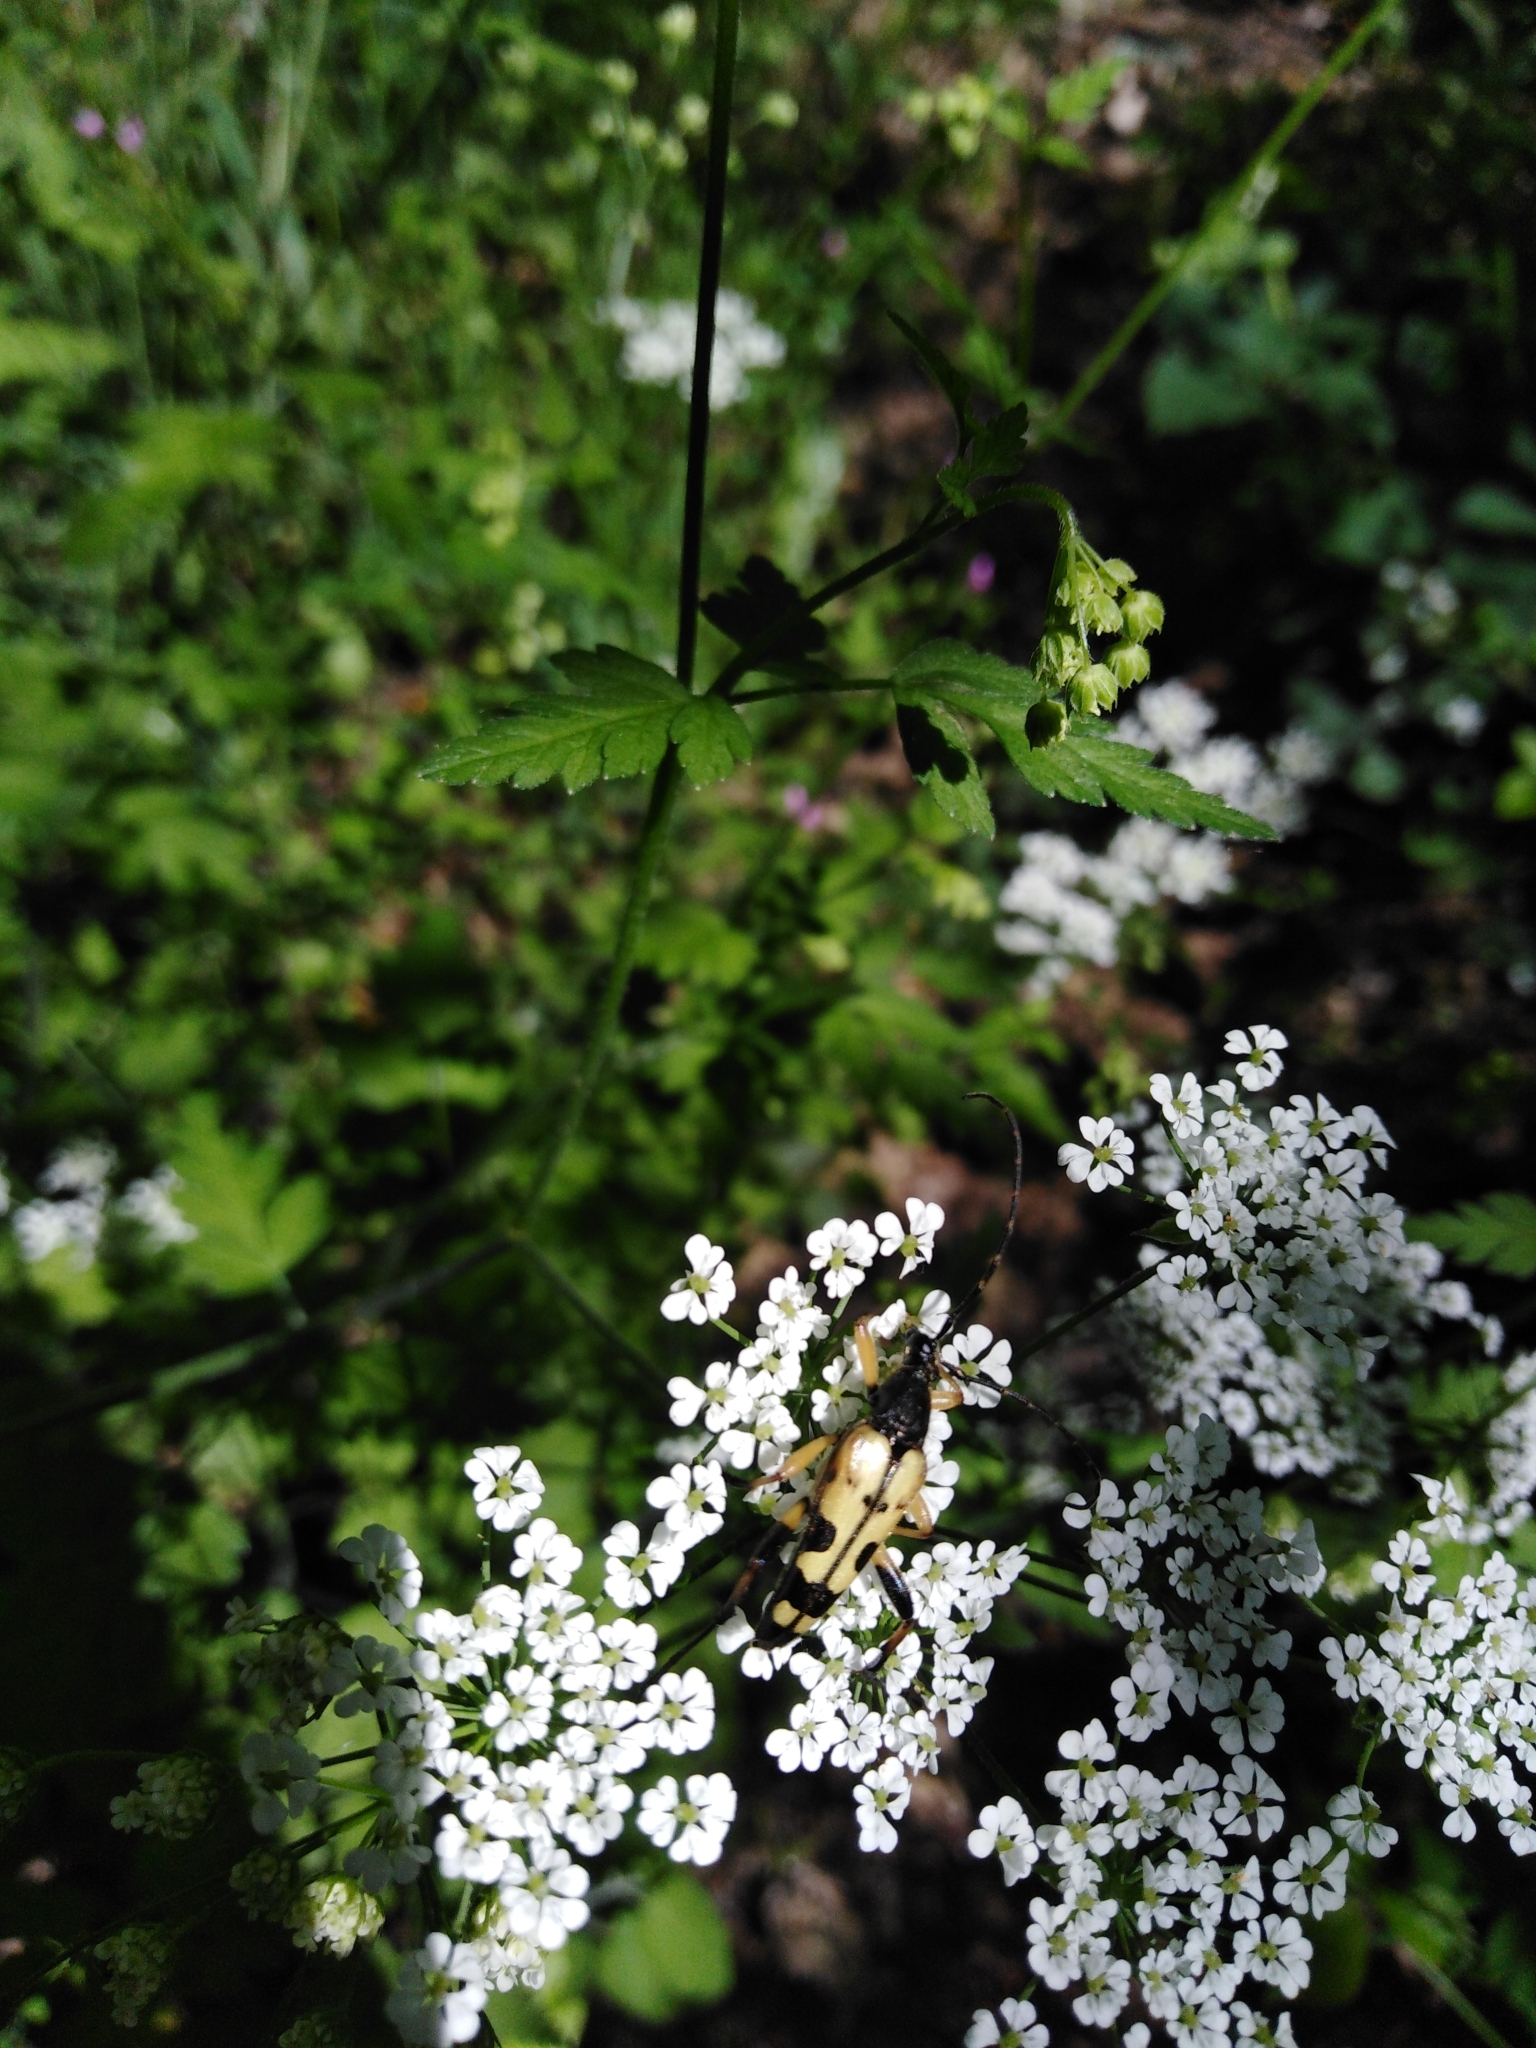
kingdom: Animalia
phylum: Arthropoda
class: Insecta
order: Coleoptera
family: Cerambycidae
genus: Rutpela
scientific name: Rutpela maculata
